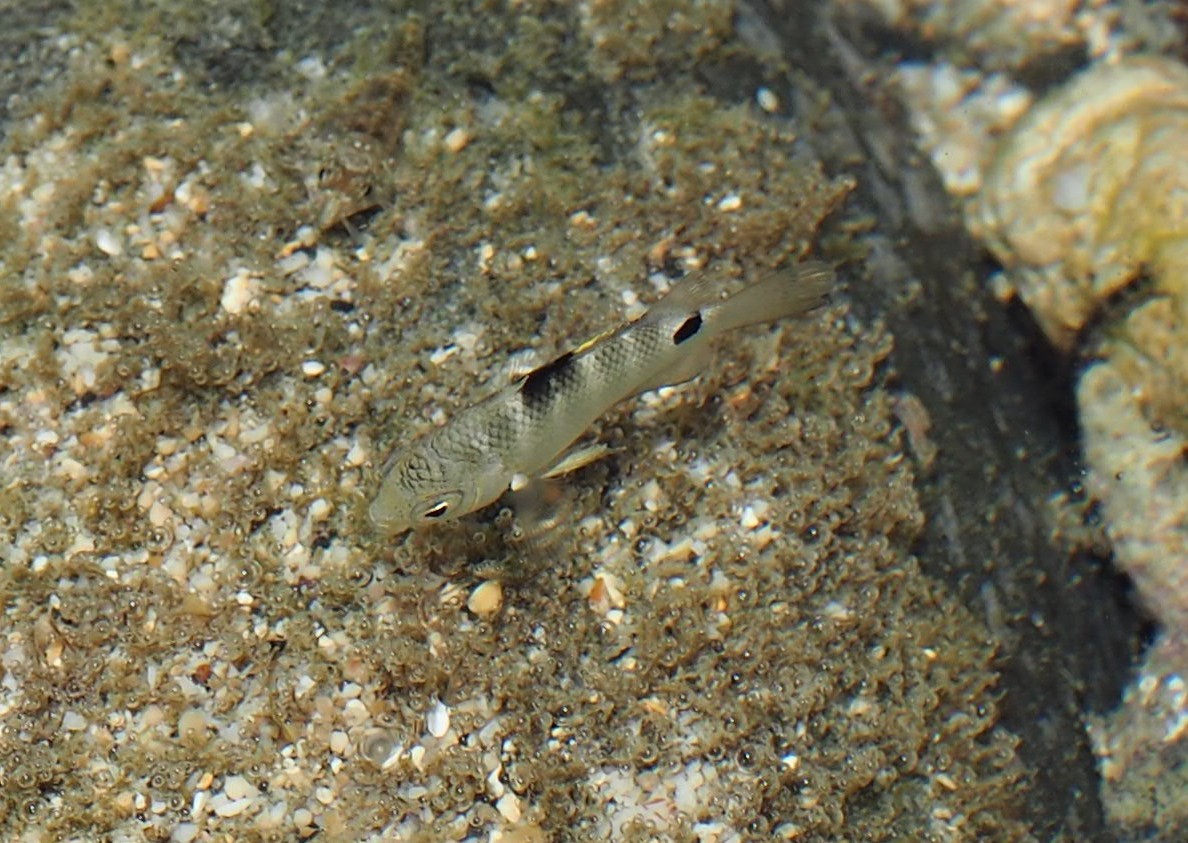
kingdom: Animalia
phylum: Chordata
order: Perciformes
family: Pomacentridae
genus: Abudefduf
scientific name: Abudefduf sordidus
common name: Blackspot sergeant
